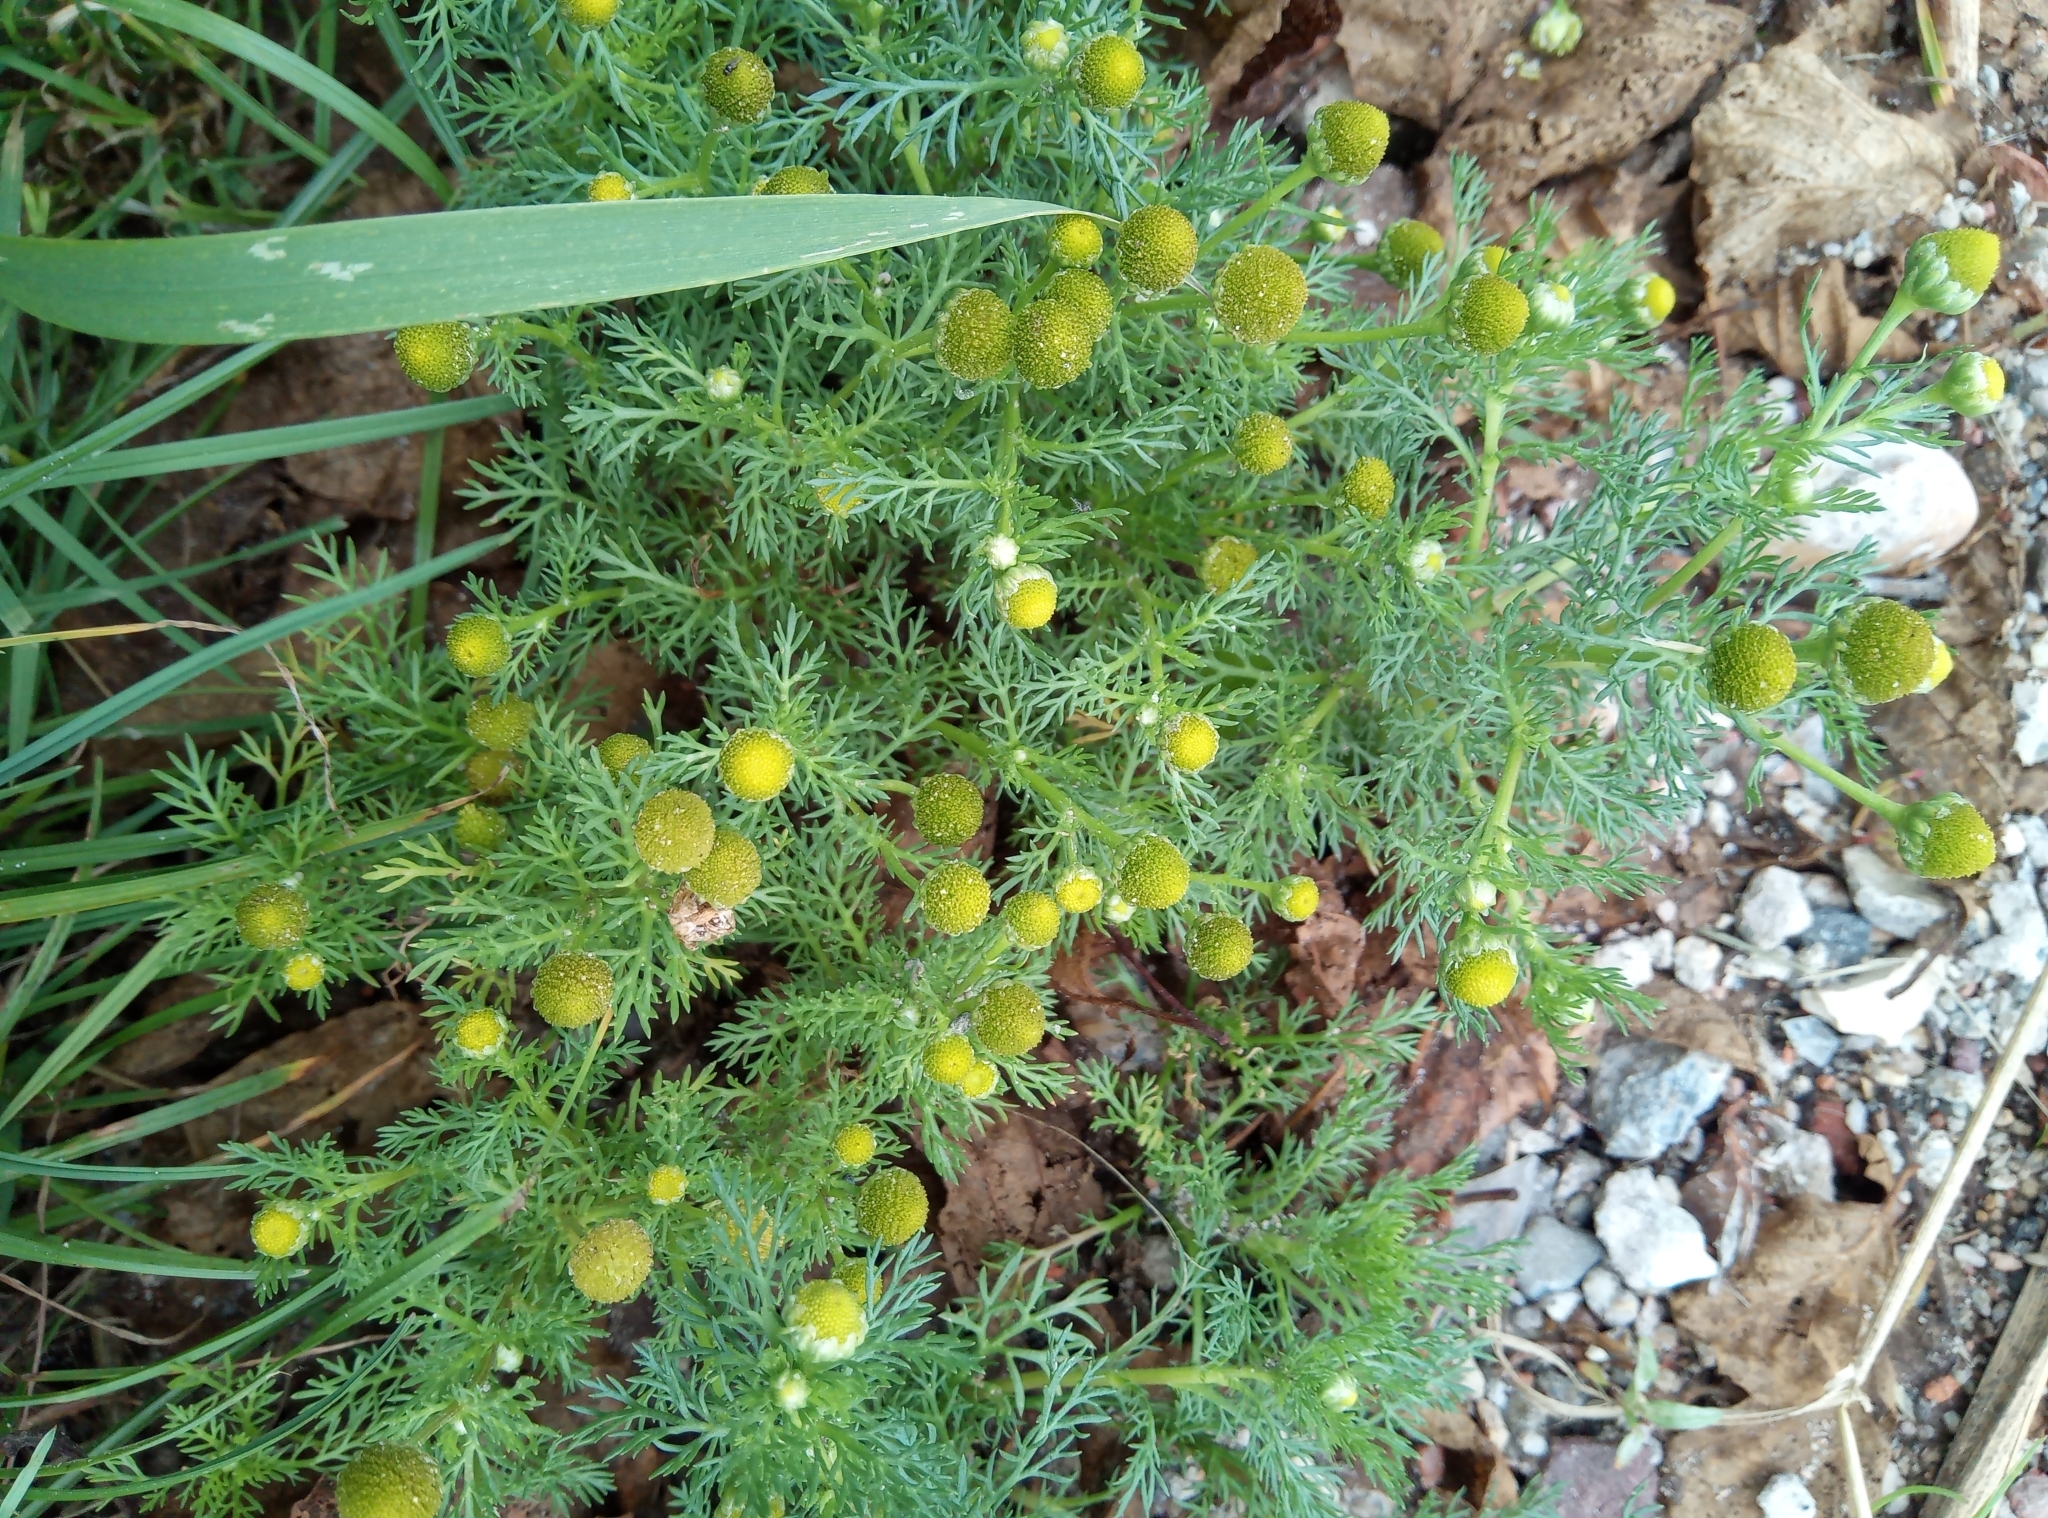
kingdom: Plantae
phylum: Tracheophyta
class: Magnoliopsida
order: Asterales
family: Asteraceae
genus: Matricaria
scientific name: Matricaria discoidea
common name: Disc mayweed
